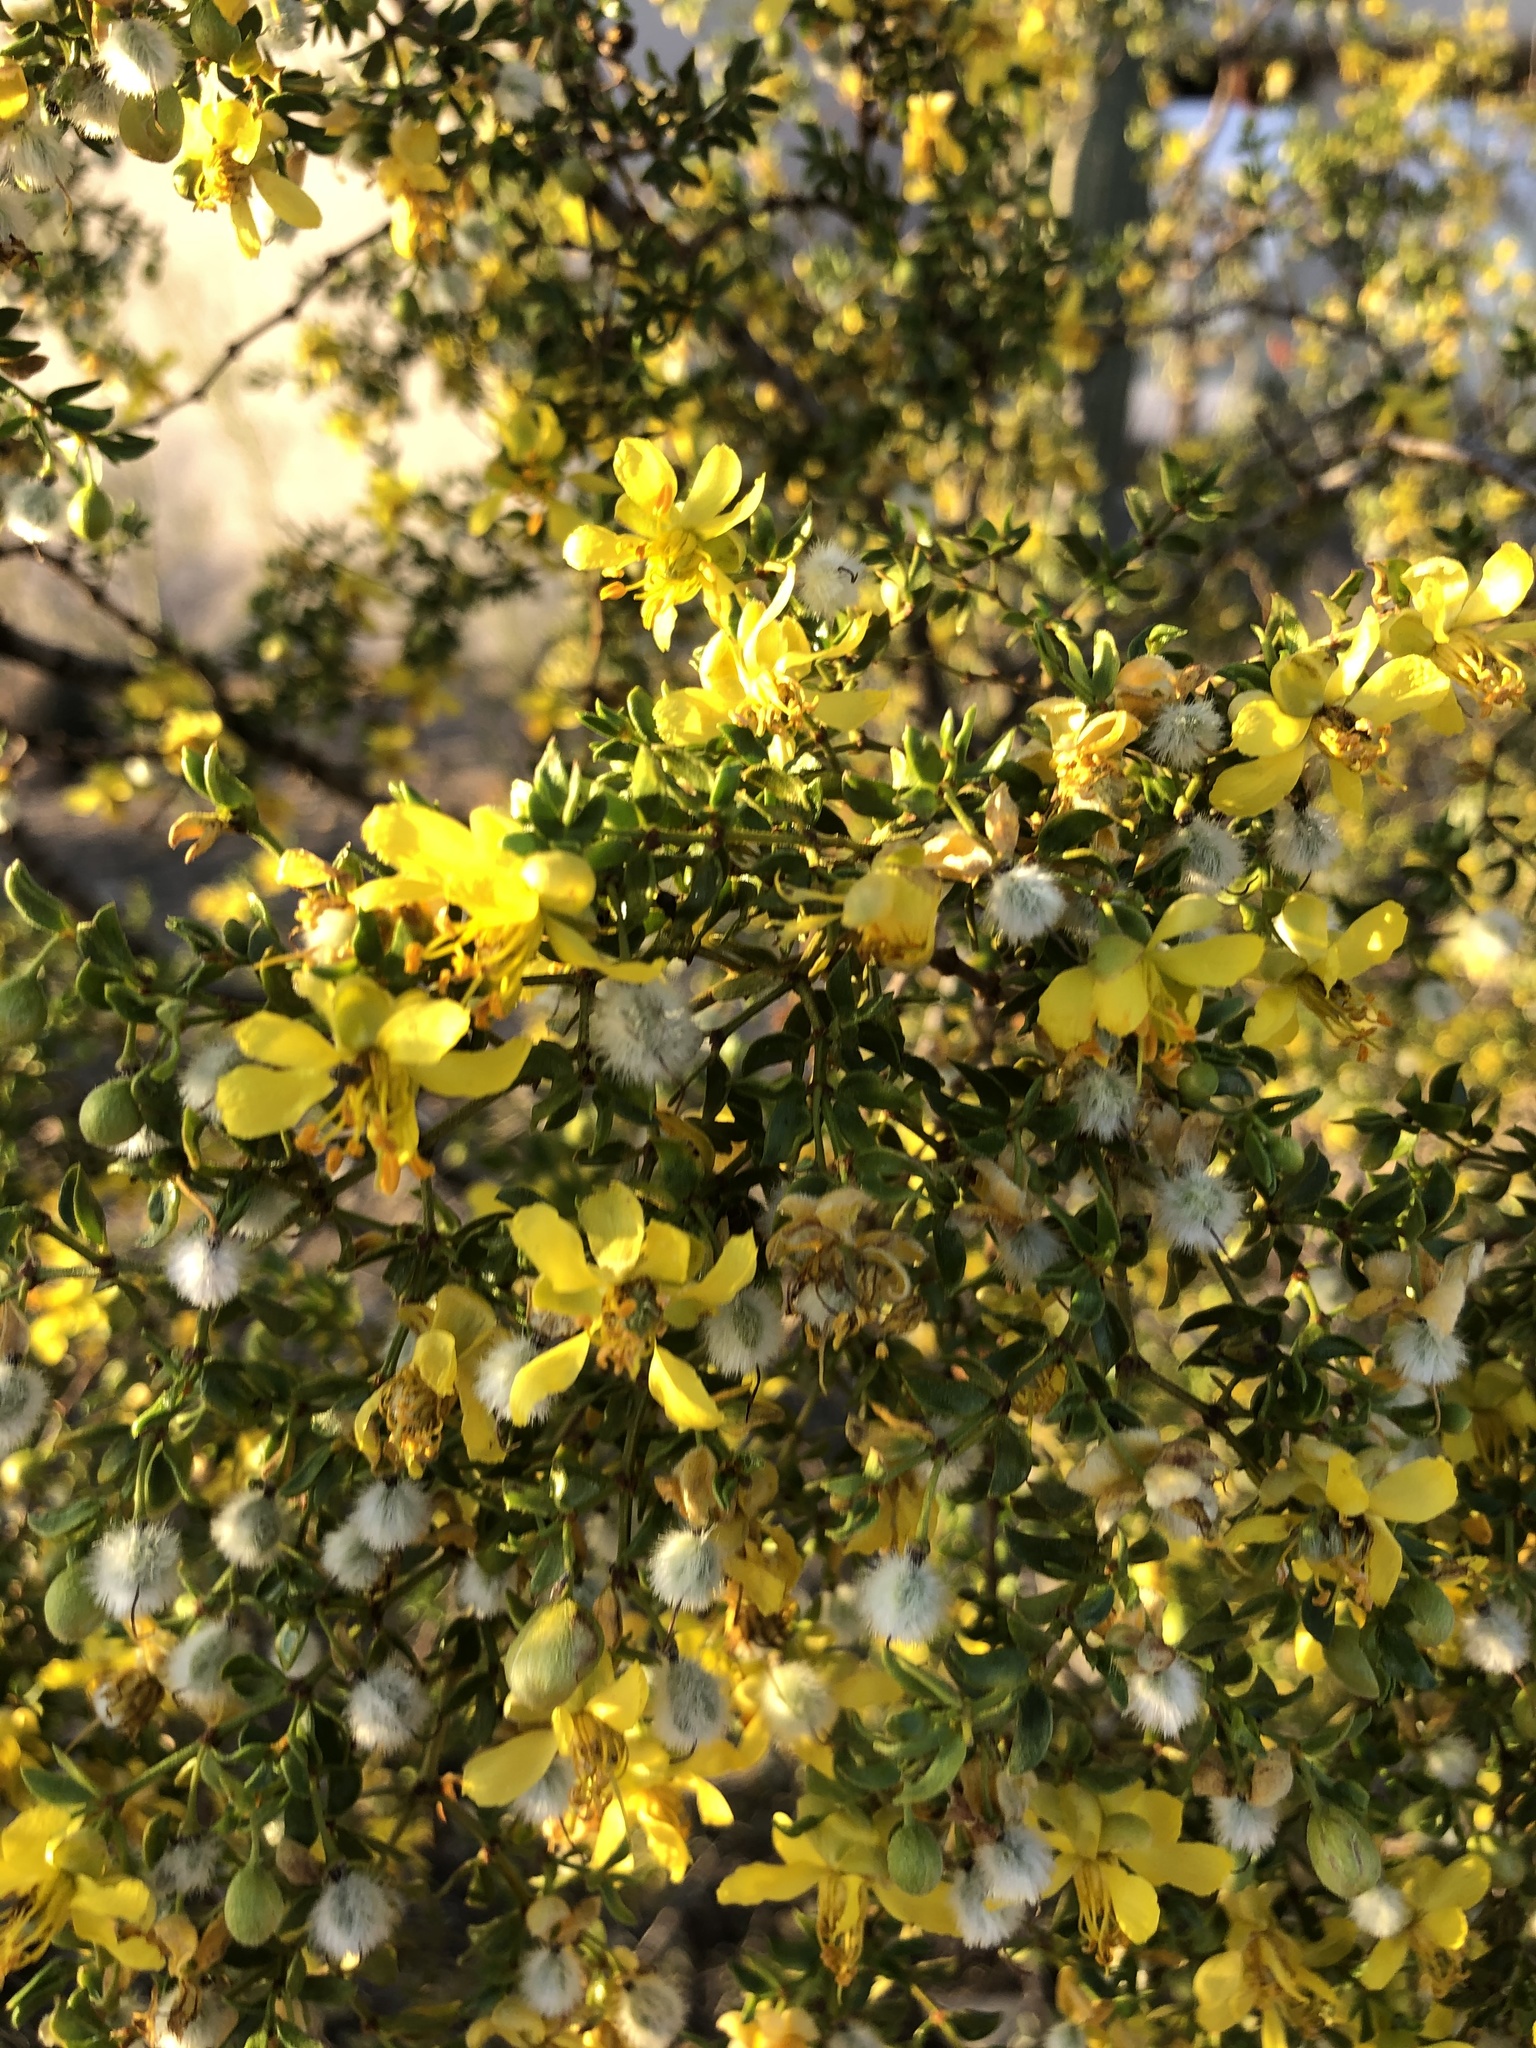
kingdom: Plantae
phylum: Tracheophyta
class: Magnoliopsida
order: Zygophyllales
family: Zygophyllaceae
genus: Larrea
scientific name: Larrea tridentata
